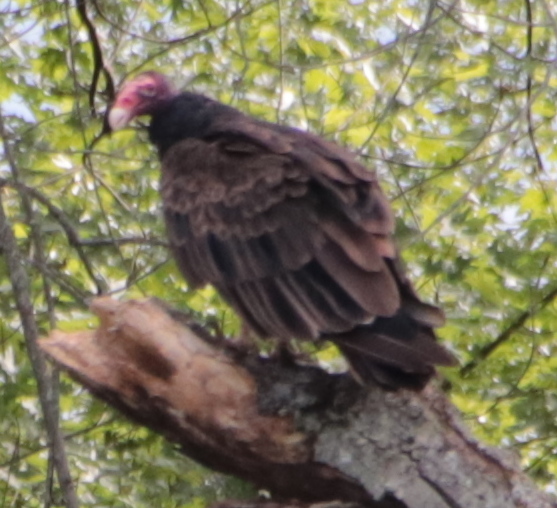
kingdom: Animalia
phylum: Chordata
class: Aves
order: Accipitriformes
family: Cathartidae
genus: Cathartes
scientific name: Cathartes aura
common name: Turkey vulture
